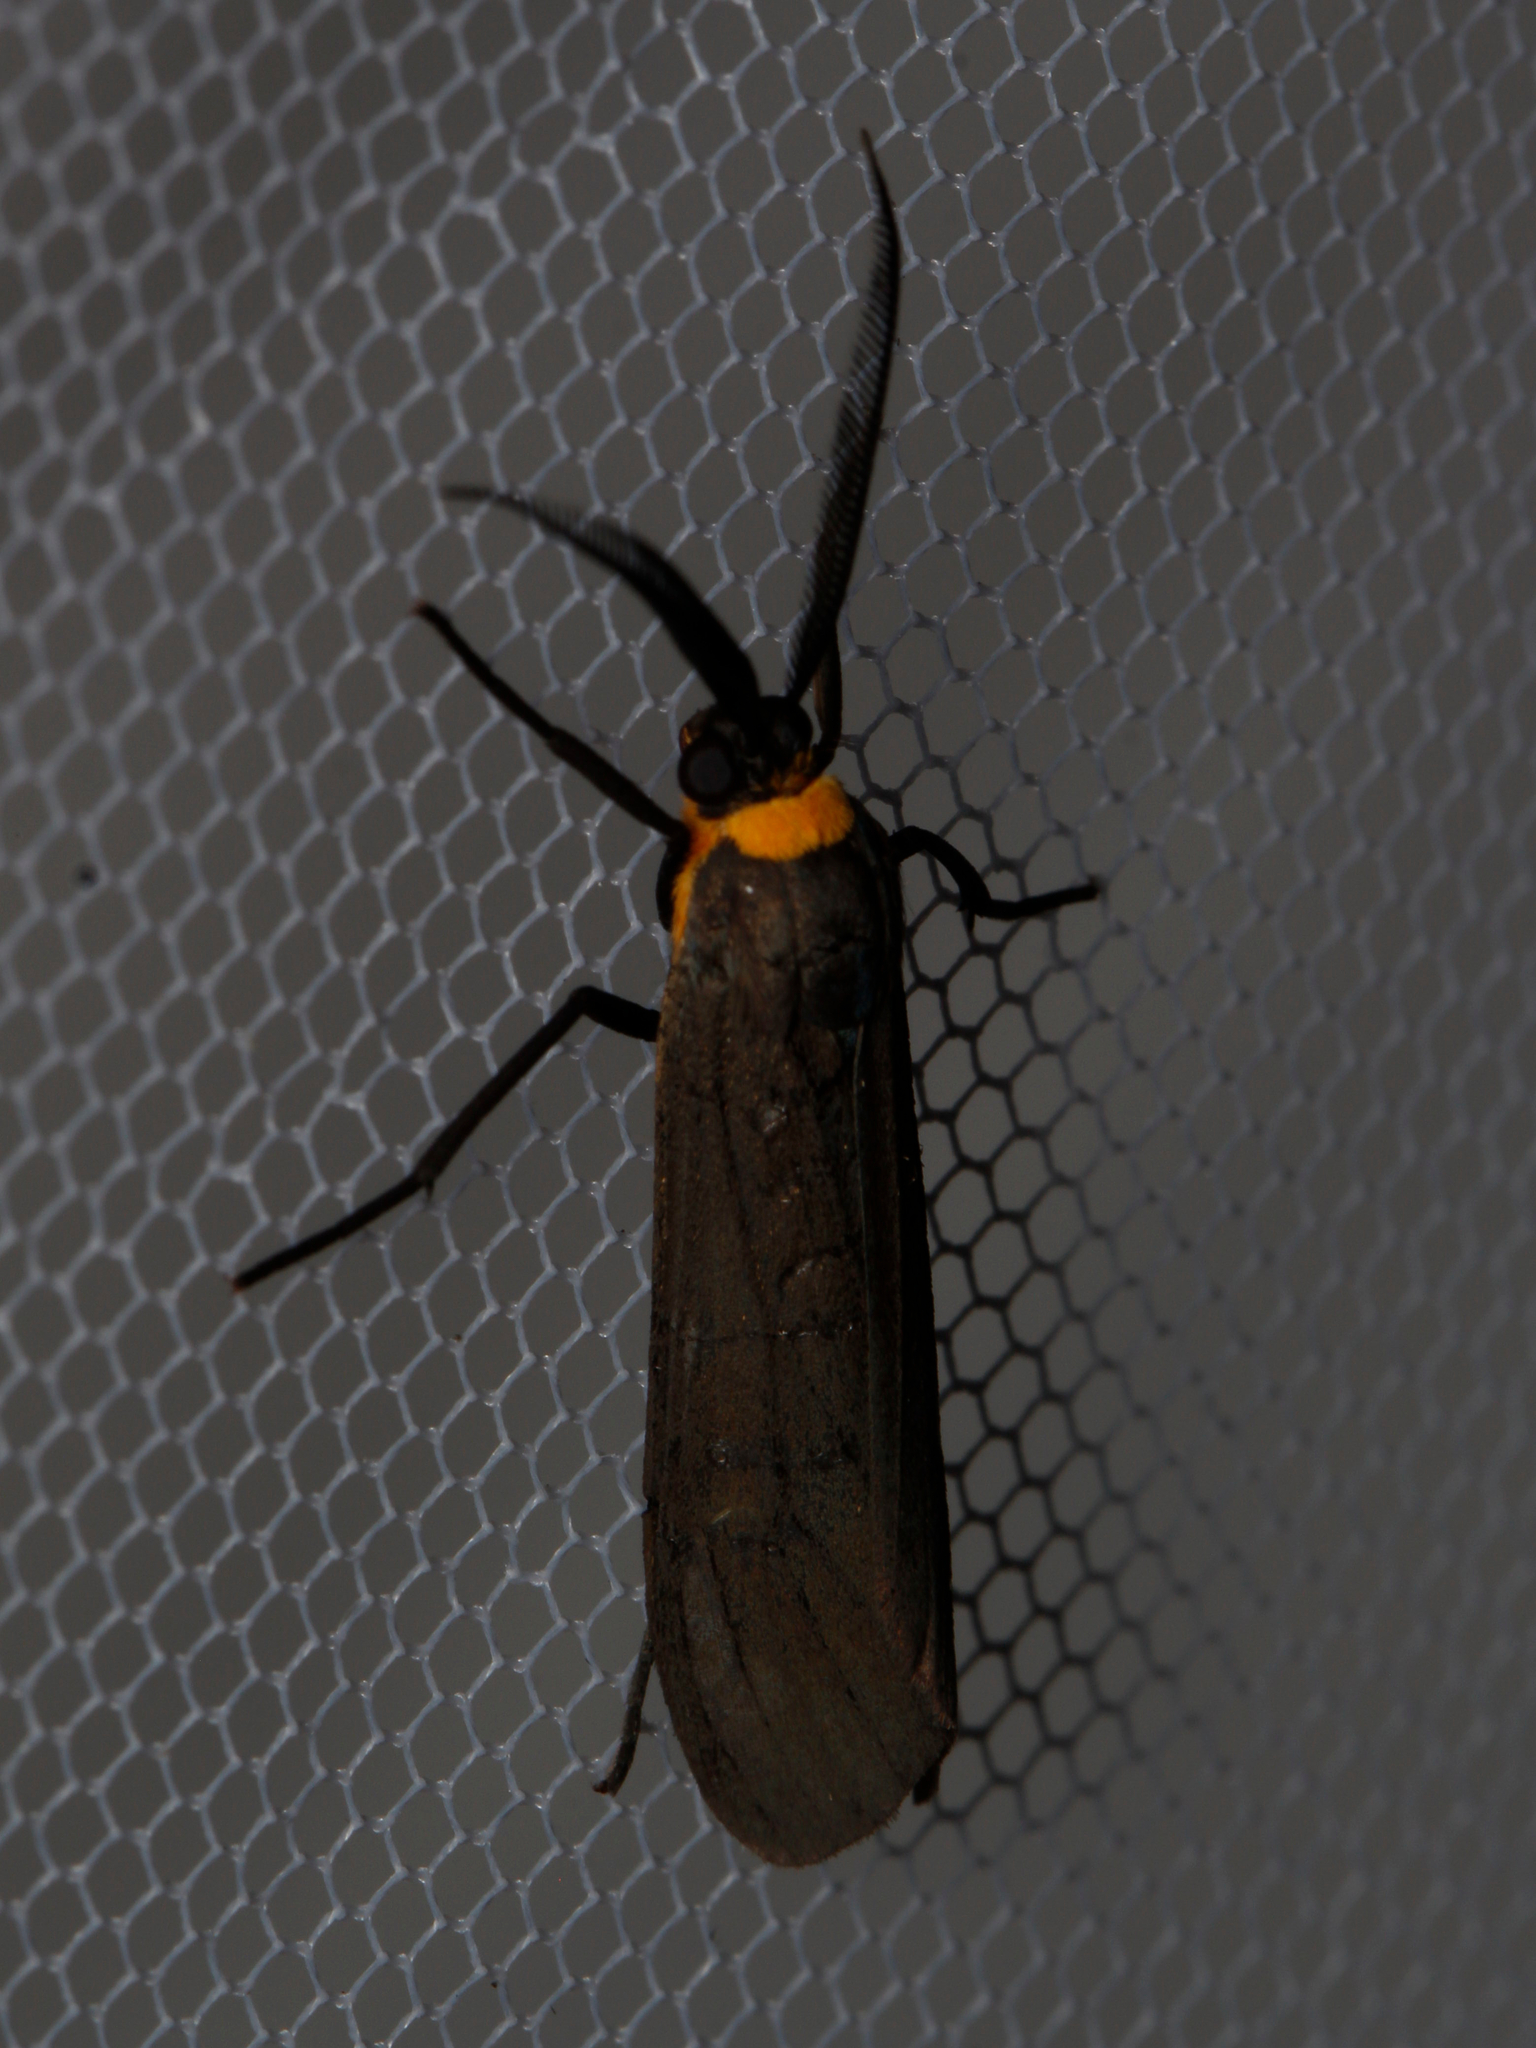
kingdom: Animalia
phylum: Arthropoda
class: Insecta
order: Lepidoptera
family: Erebidae
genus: Cisseps
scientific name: Cisseps fulvicollis
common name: Yellow-collared scape moth
